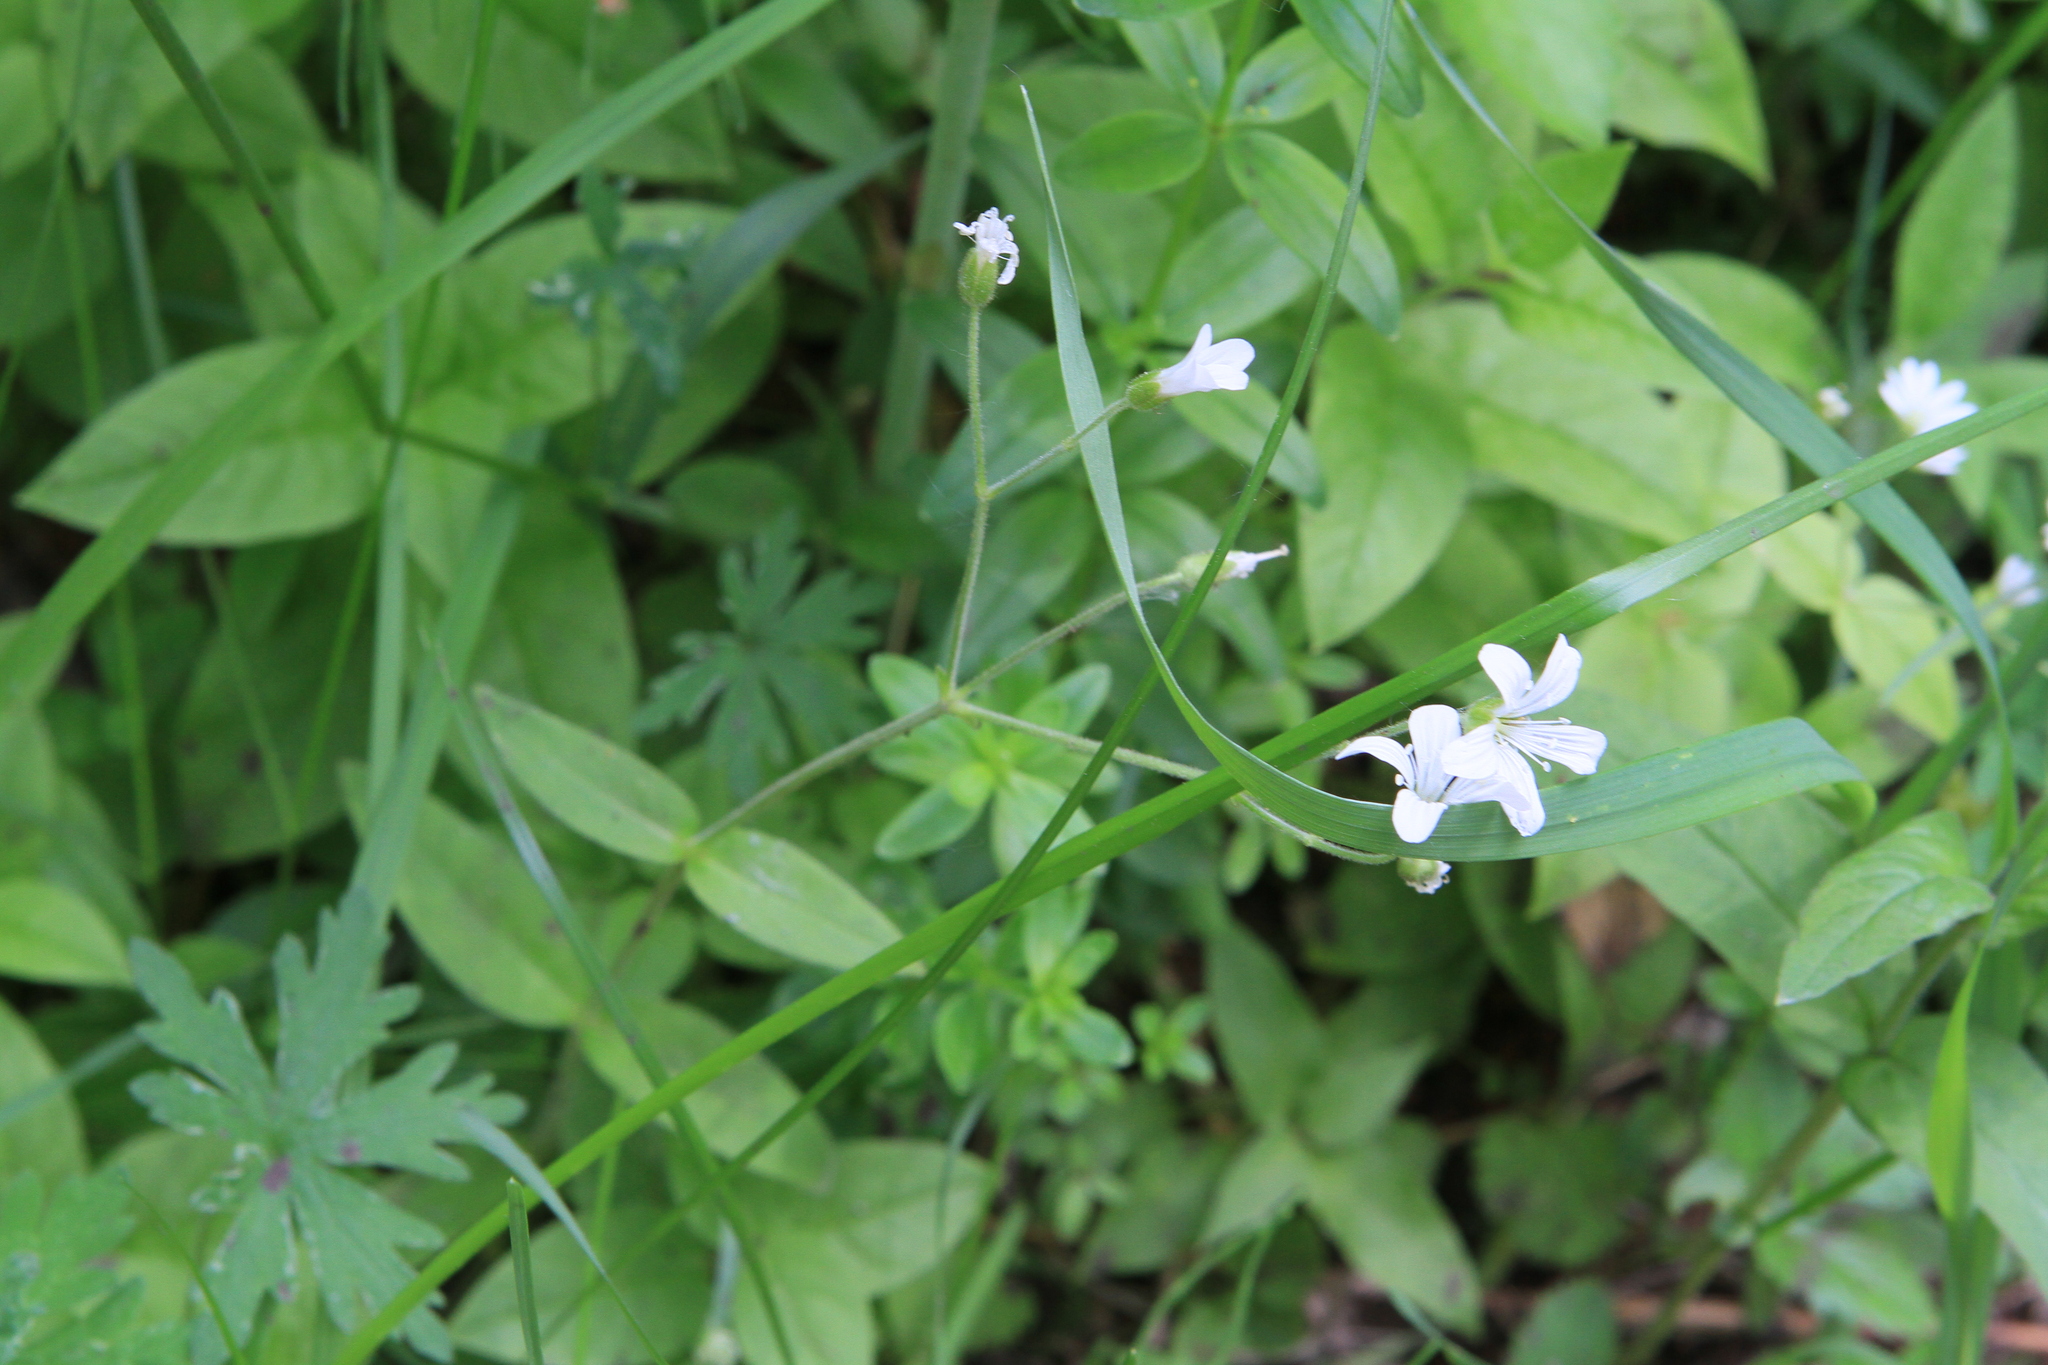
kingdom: Plantae
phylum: Tracheophyta
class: Magnoliopsida
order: Caryophyllales
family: Caryophyllaceae
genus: Cerastium
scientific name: Cerastium pauciflorum
